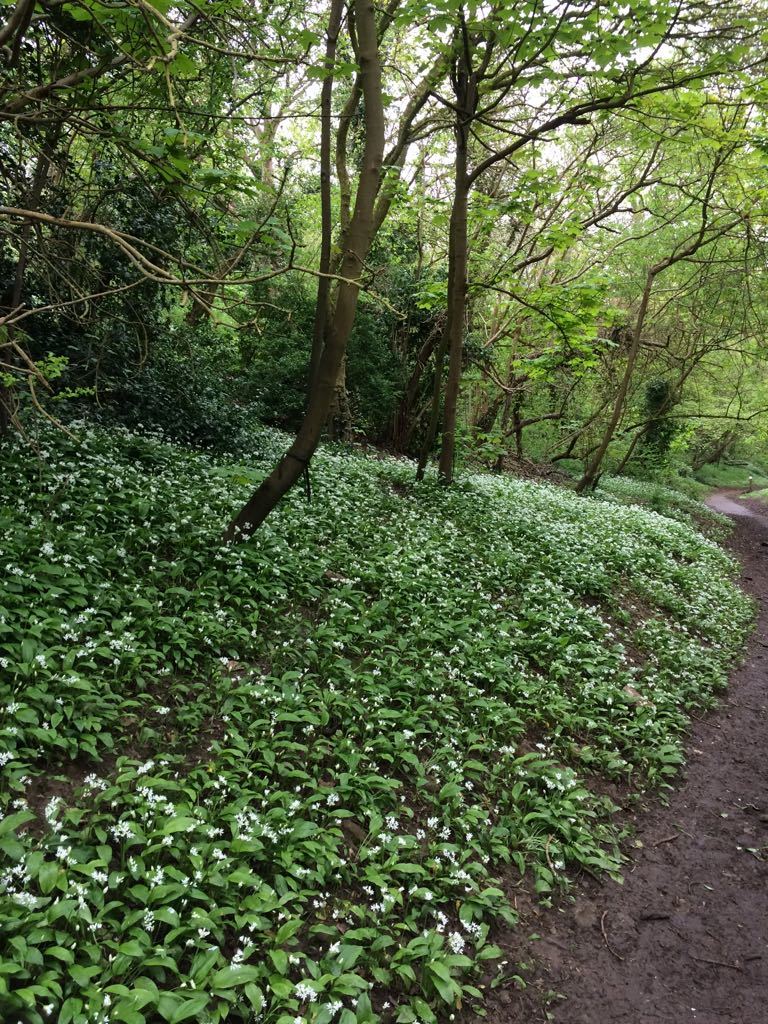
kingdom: Plantae
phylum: Tracheophyta
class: Liliopsida
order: Asparagales
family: Amaryllidaceae
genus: Allium
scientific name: Allium ursinum
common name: Ramsons
